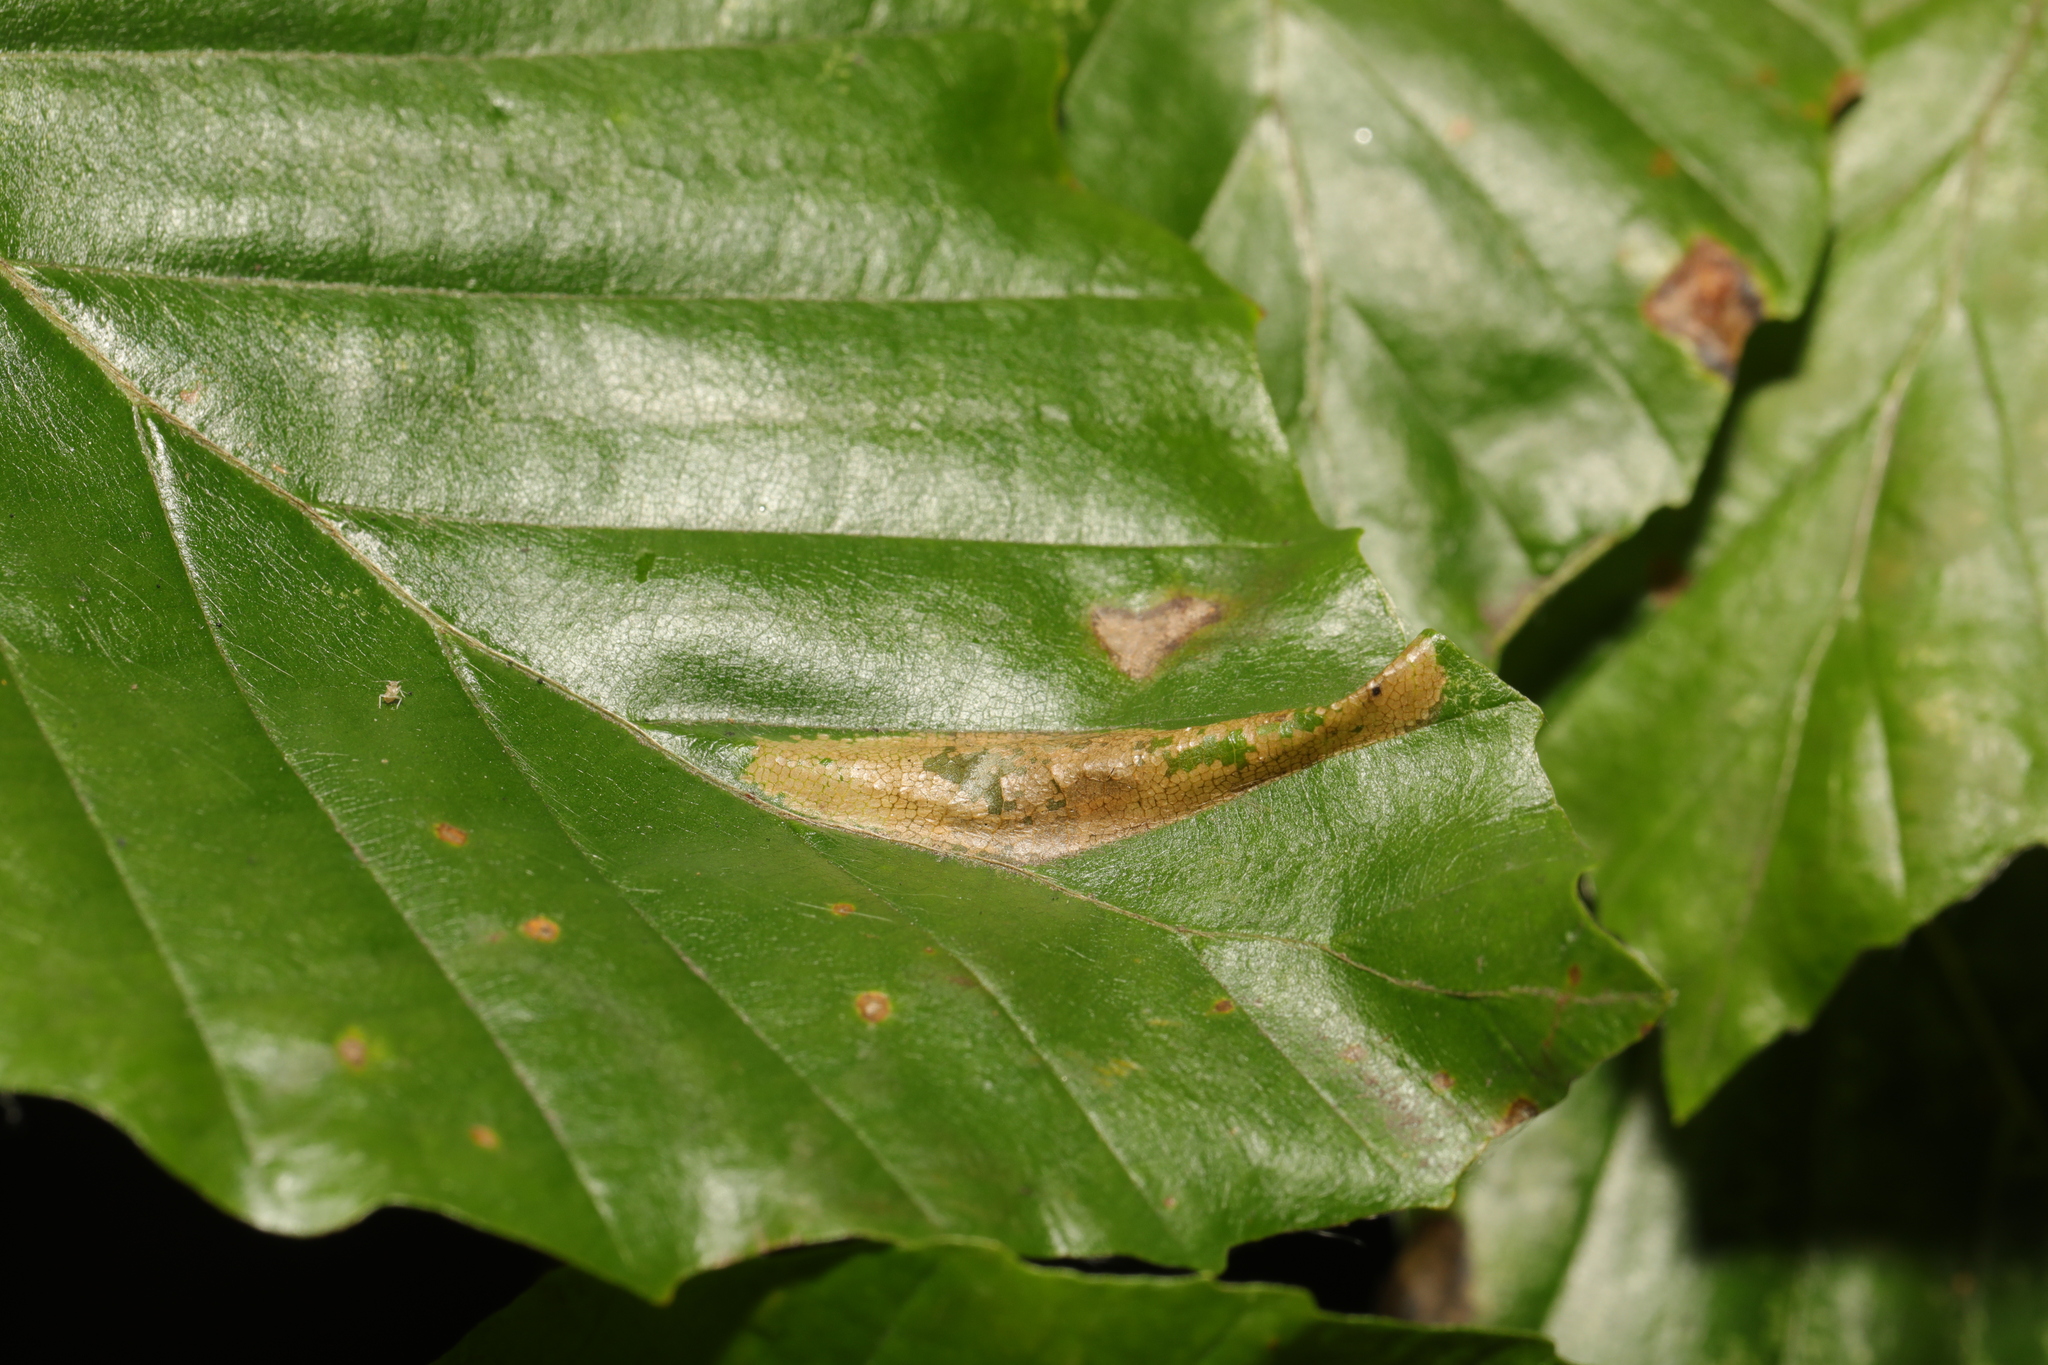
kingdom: Animalia
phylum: Arthropoda
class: Insecta
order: Lepidoptera
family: Gracillariidae
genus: Phyllonorycter
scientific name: Phyllonorycter maestingella
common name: Beech midget
